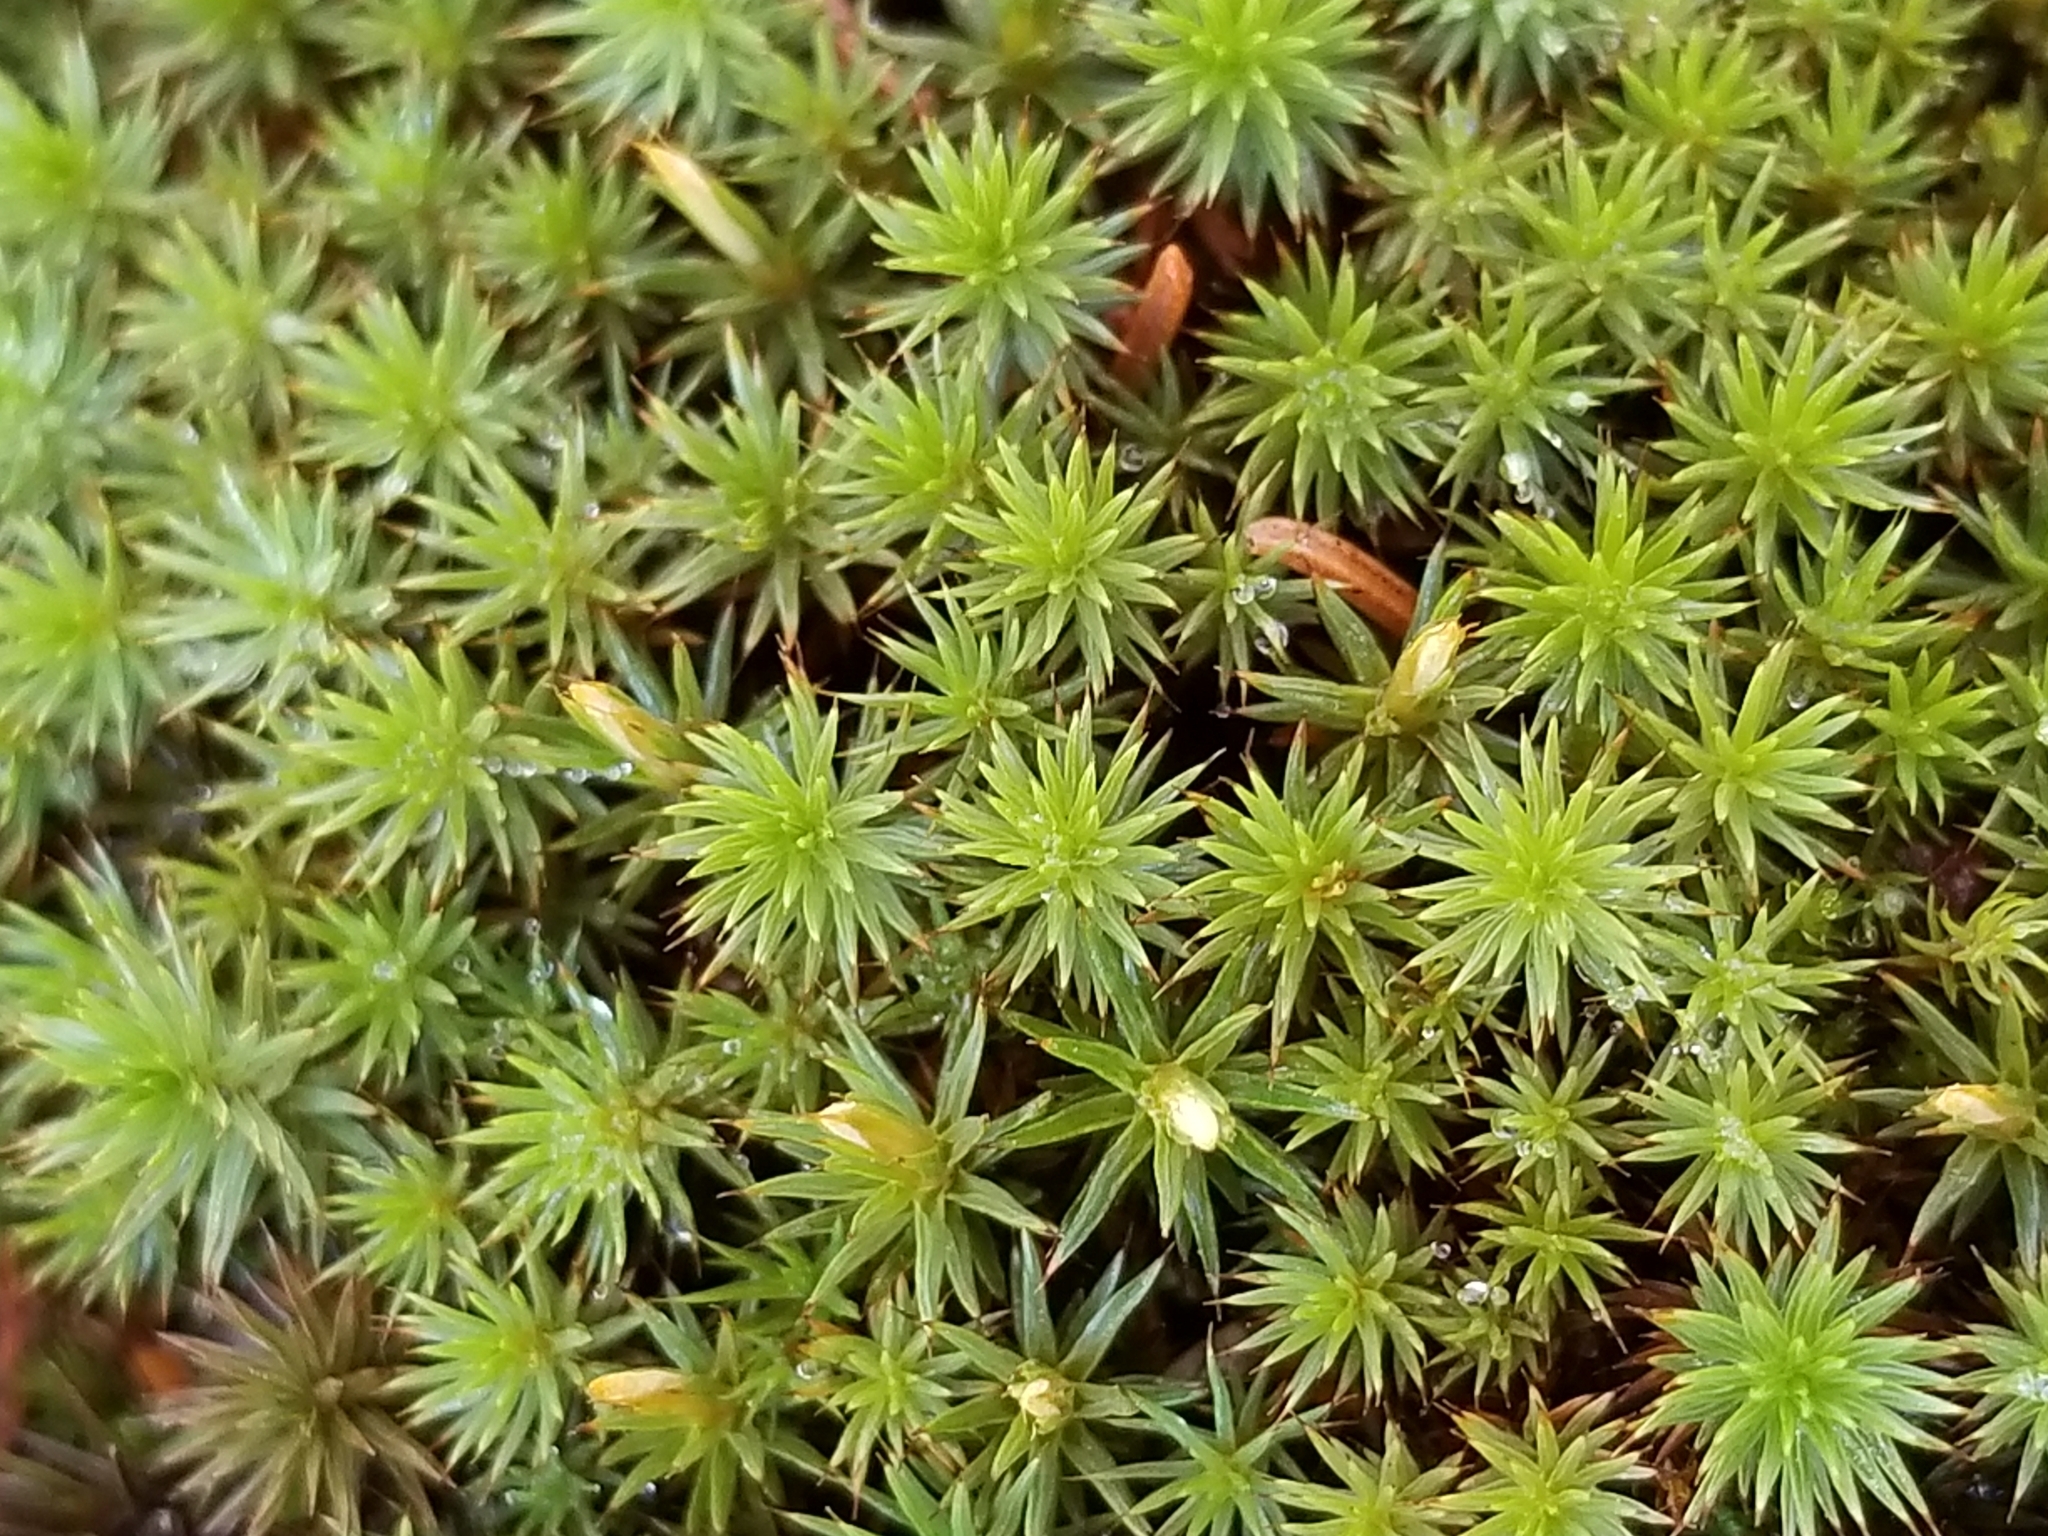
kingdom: Plantae
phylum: Bryophyta
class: Polytrichopsida
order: Polytrichales
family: Polytrichaceae
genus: Polytrichum
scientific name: Polytrichum juniperinum
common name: Juniper haircap moss
